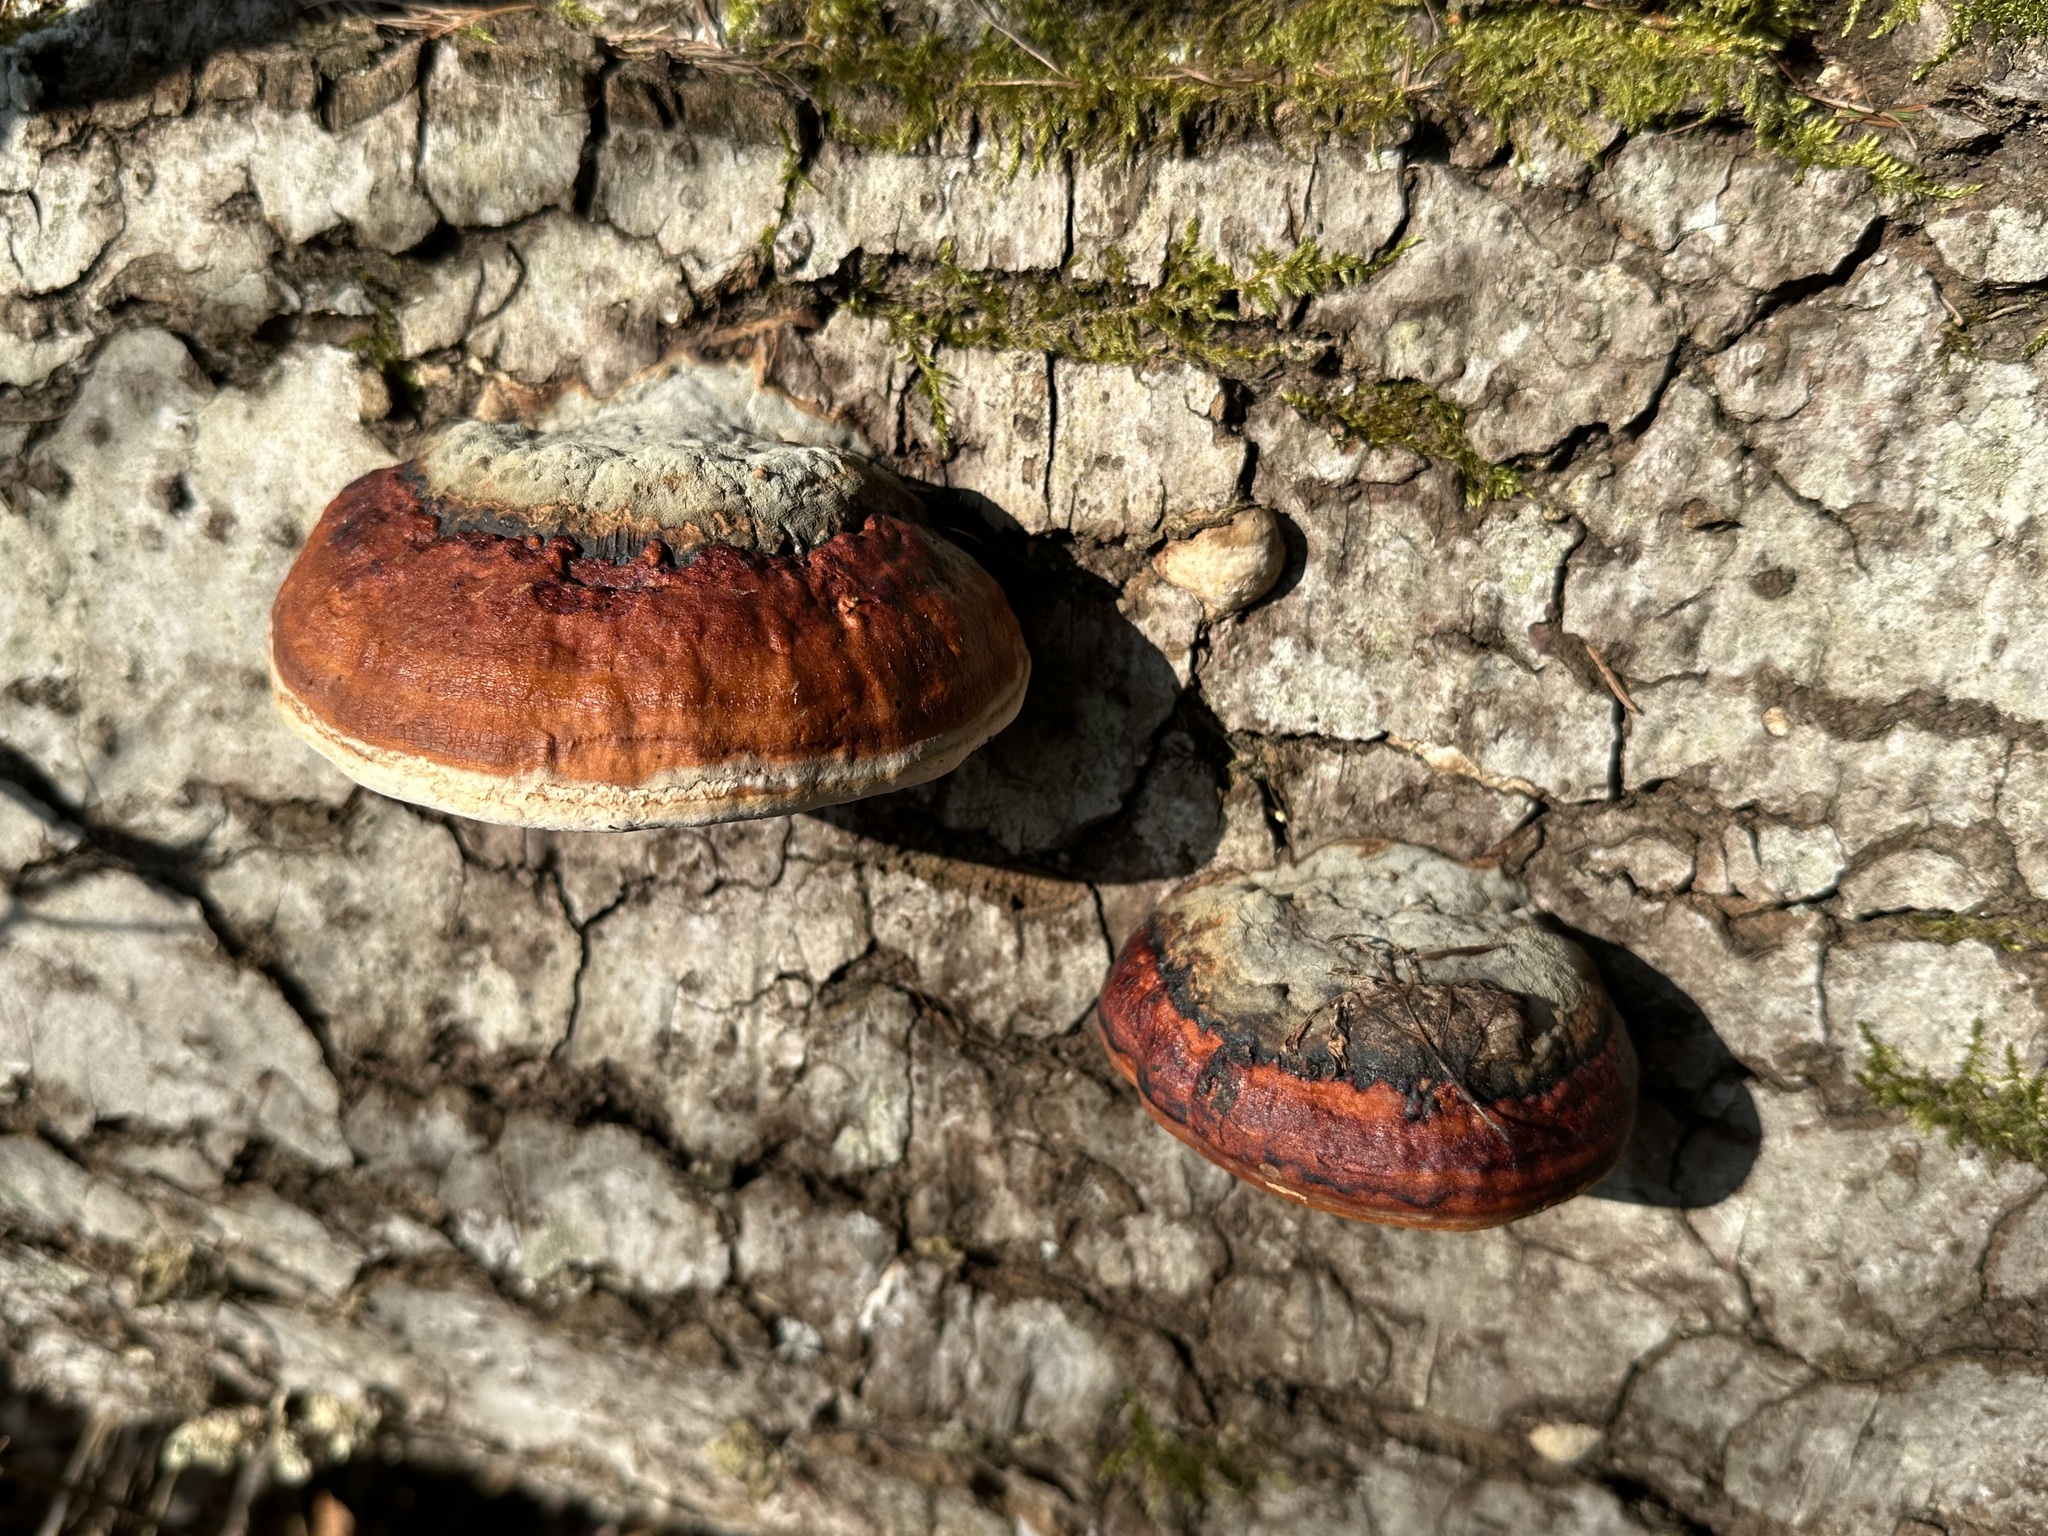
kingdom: Fungi
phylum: Basidiomycota
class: Agaricomycetes
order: Polyporales
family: Fomitopsidaceae
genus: Fomitopsis
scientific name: Fomitopsis pinicola
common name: Red-belted bracket
